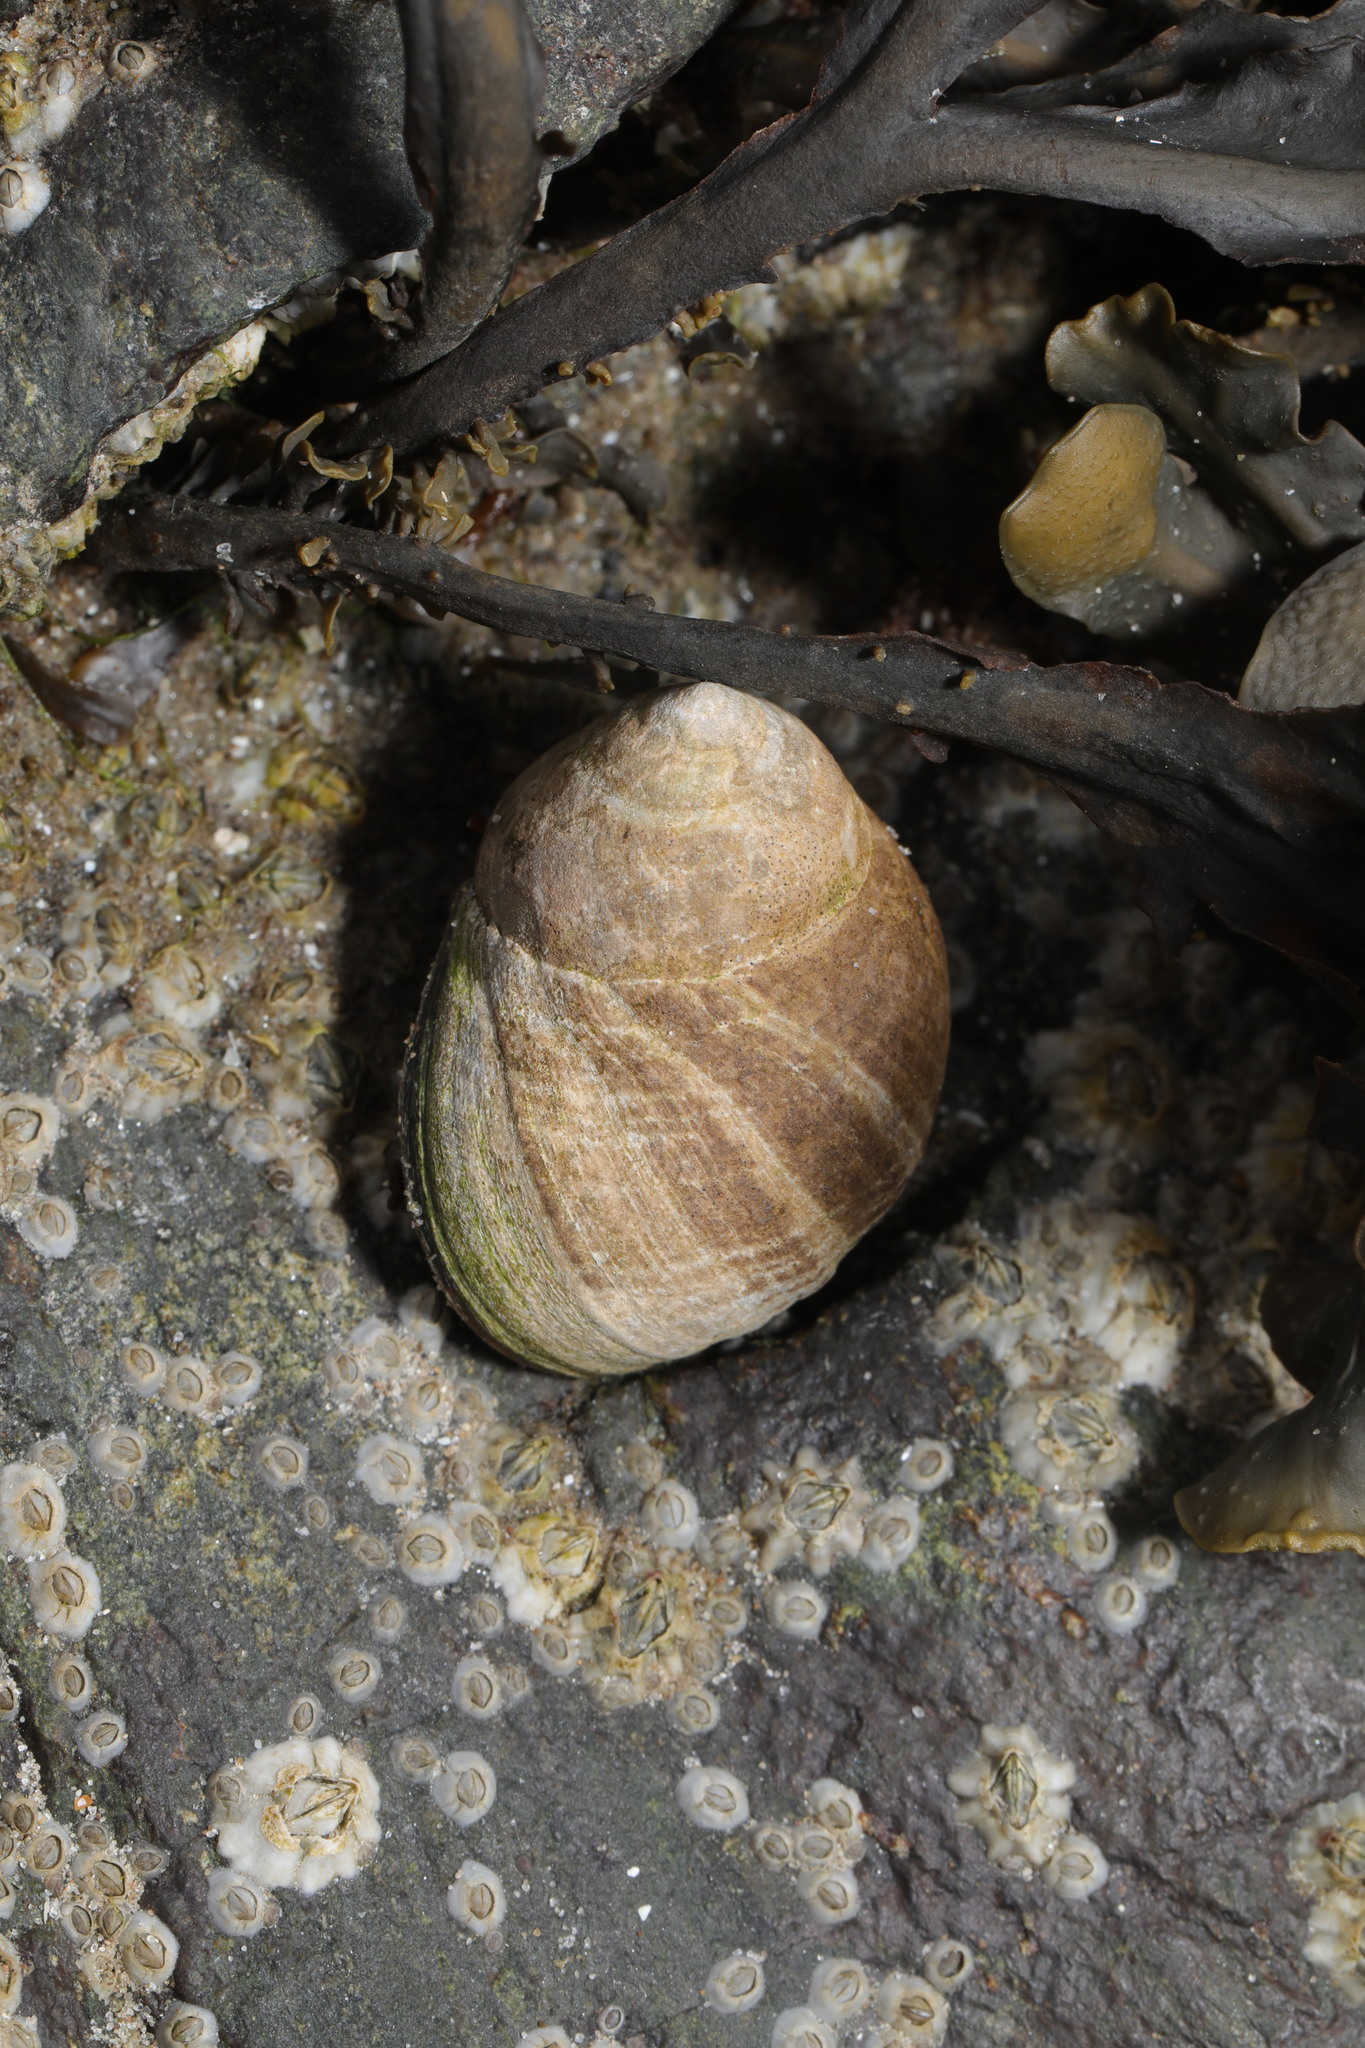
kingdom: Animalia
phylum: Mollusca
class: Gastropoda
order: Littorinimorpha
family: Littorinidae
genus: Littorina
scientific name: Littorina littorea
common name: Common periwinkle
